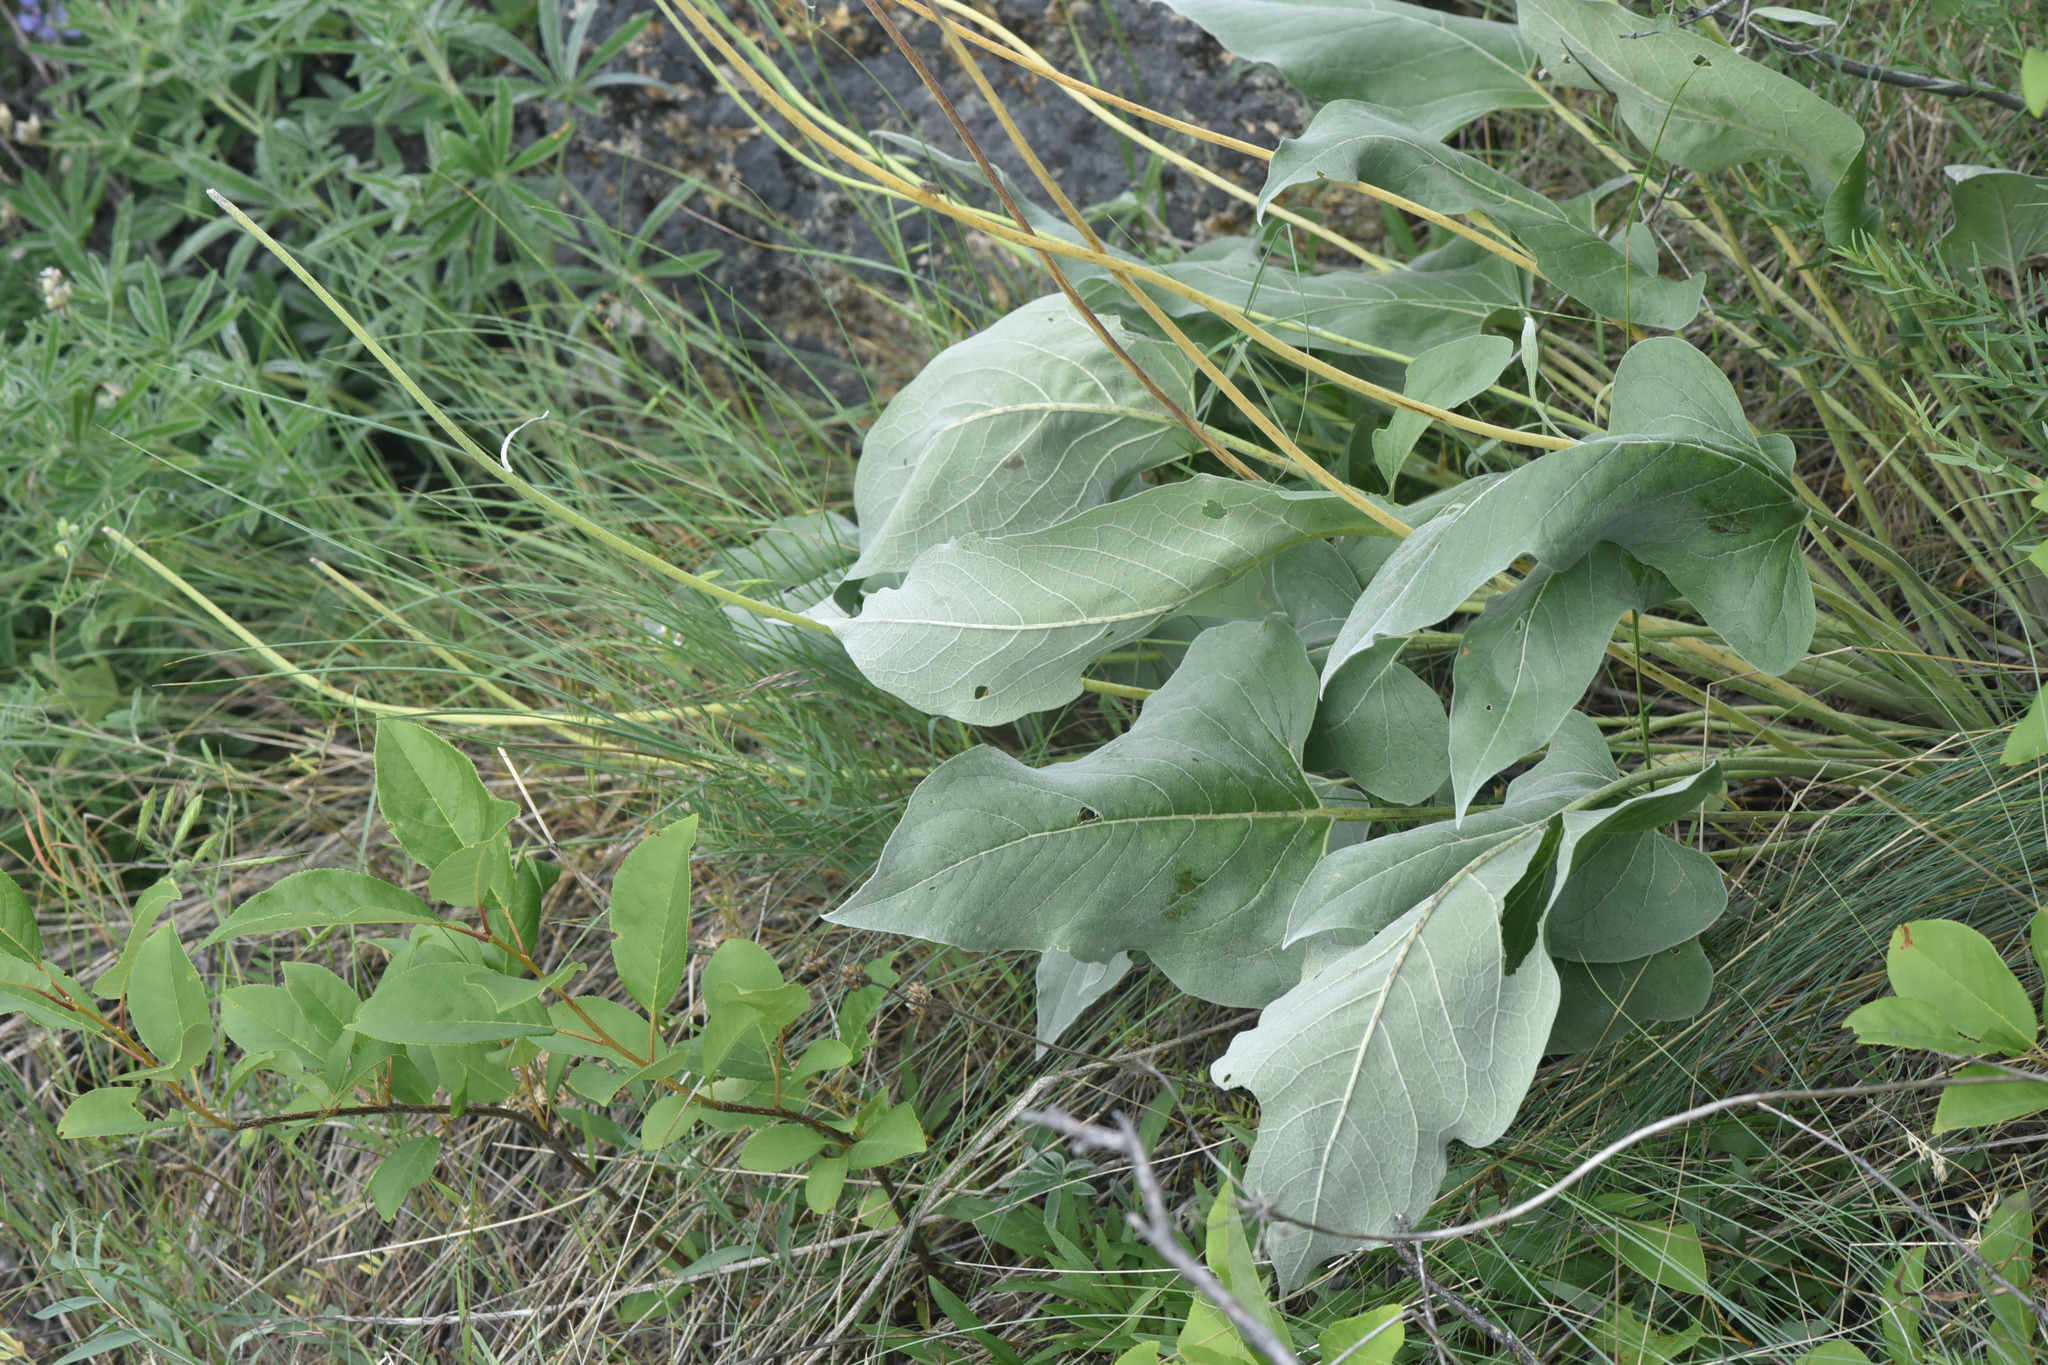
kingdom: Plantae
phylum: Tracheophyta
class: Magnoliopsida
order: Asterales
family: Asteraceae
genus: Wyethia
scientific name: Wyethia sagittata
